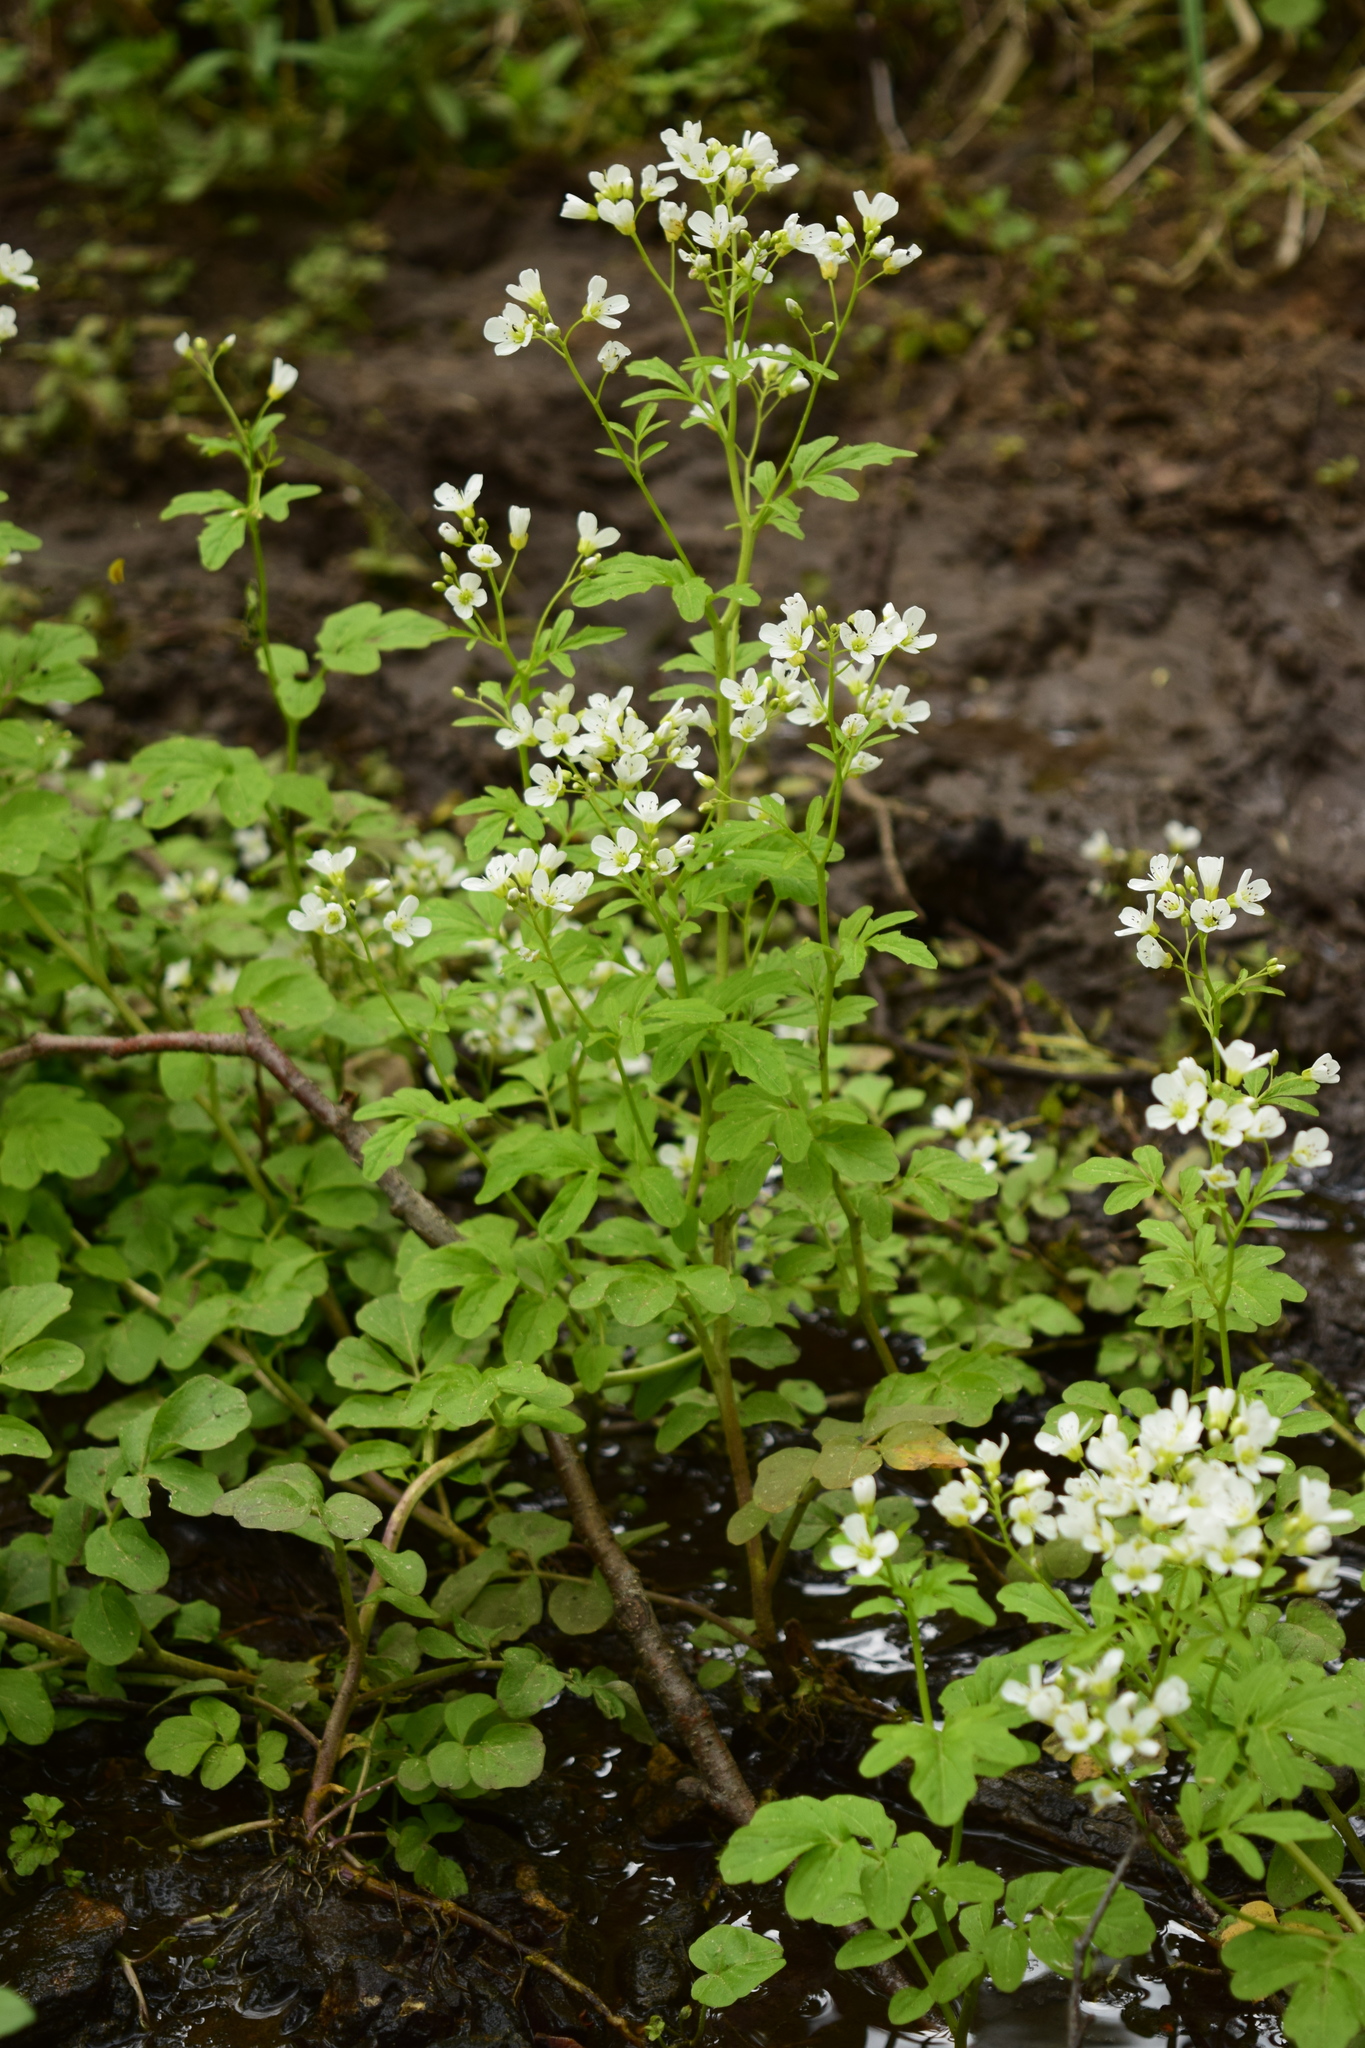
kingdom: Plantae
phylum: Tracheophyta
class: Magnoliopsida
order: Brassicales
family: Brassicaceae
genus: Cardamine
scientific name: Cardamine amara
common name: Large bitter-cress
